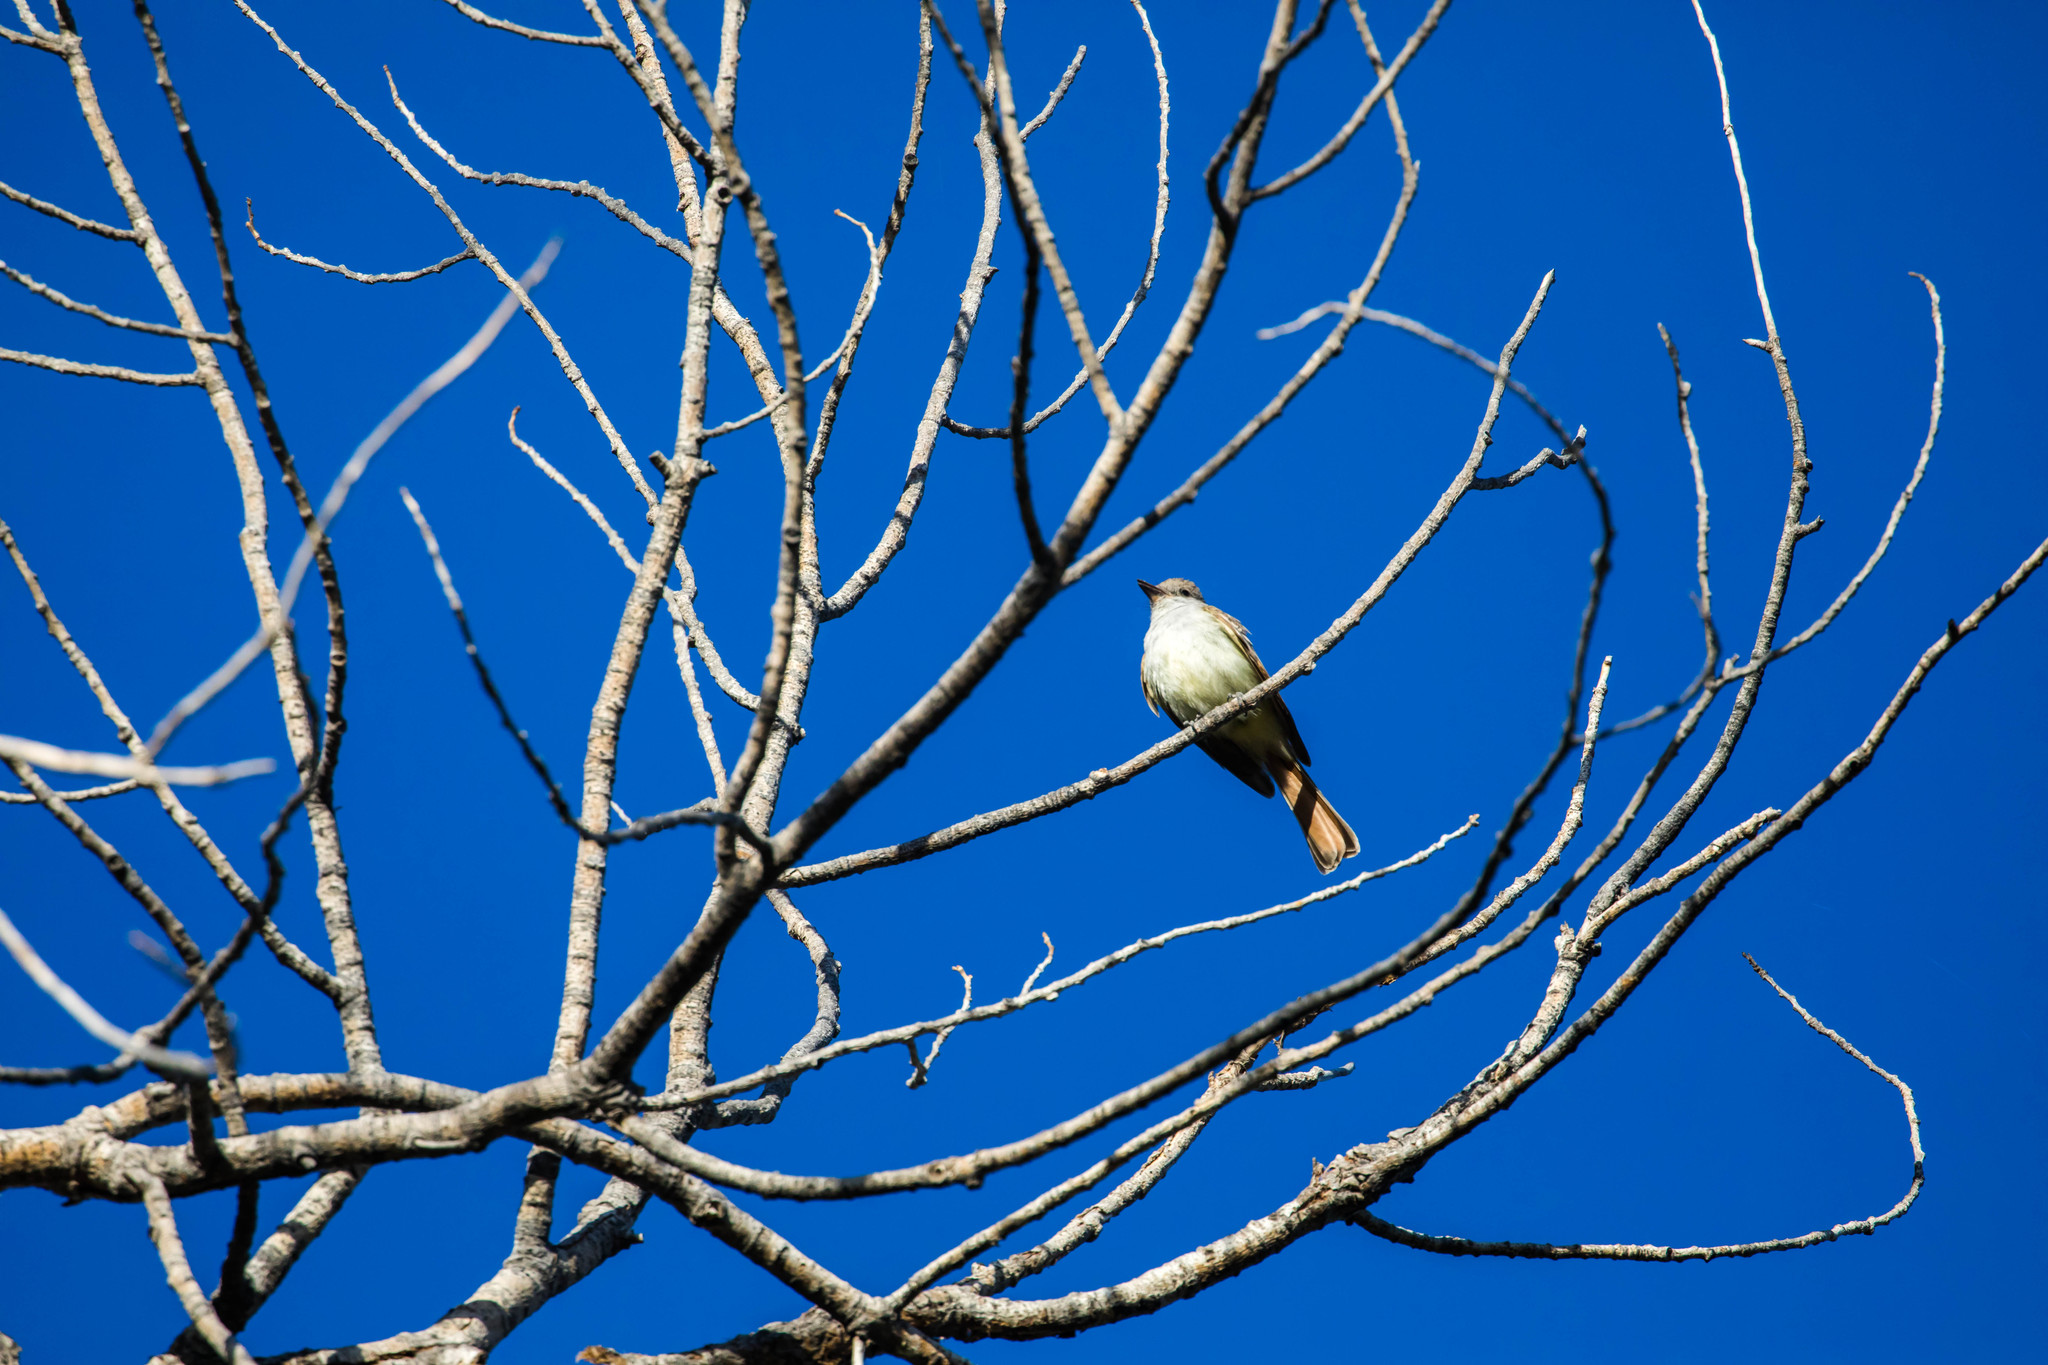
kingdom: Animalia
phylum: Chordata
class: Aves
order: Passeriformes
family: Tyrannidae
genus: Myiarchus
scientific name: Myiarchus cinerascens
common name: Ash-throated flycatcher
